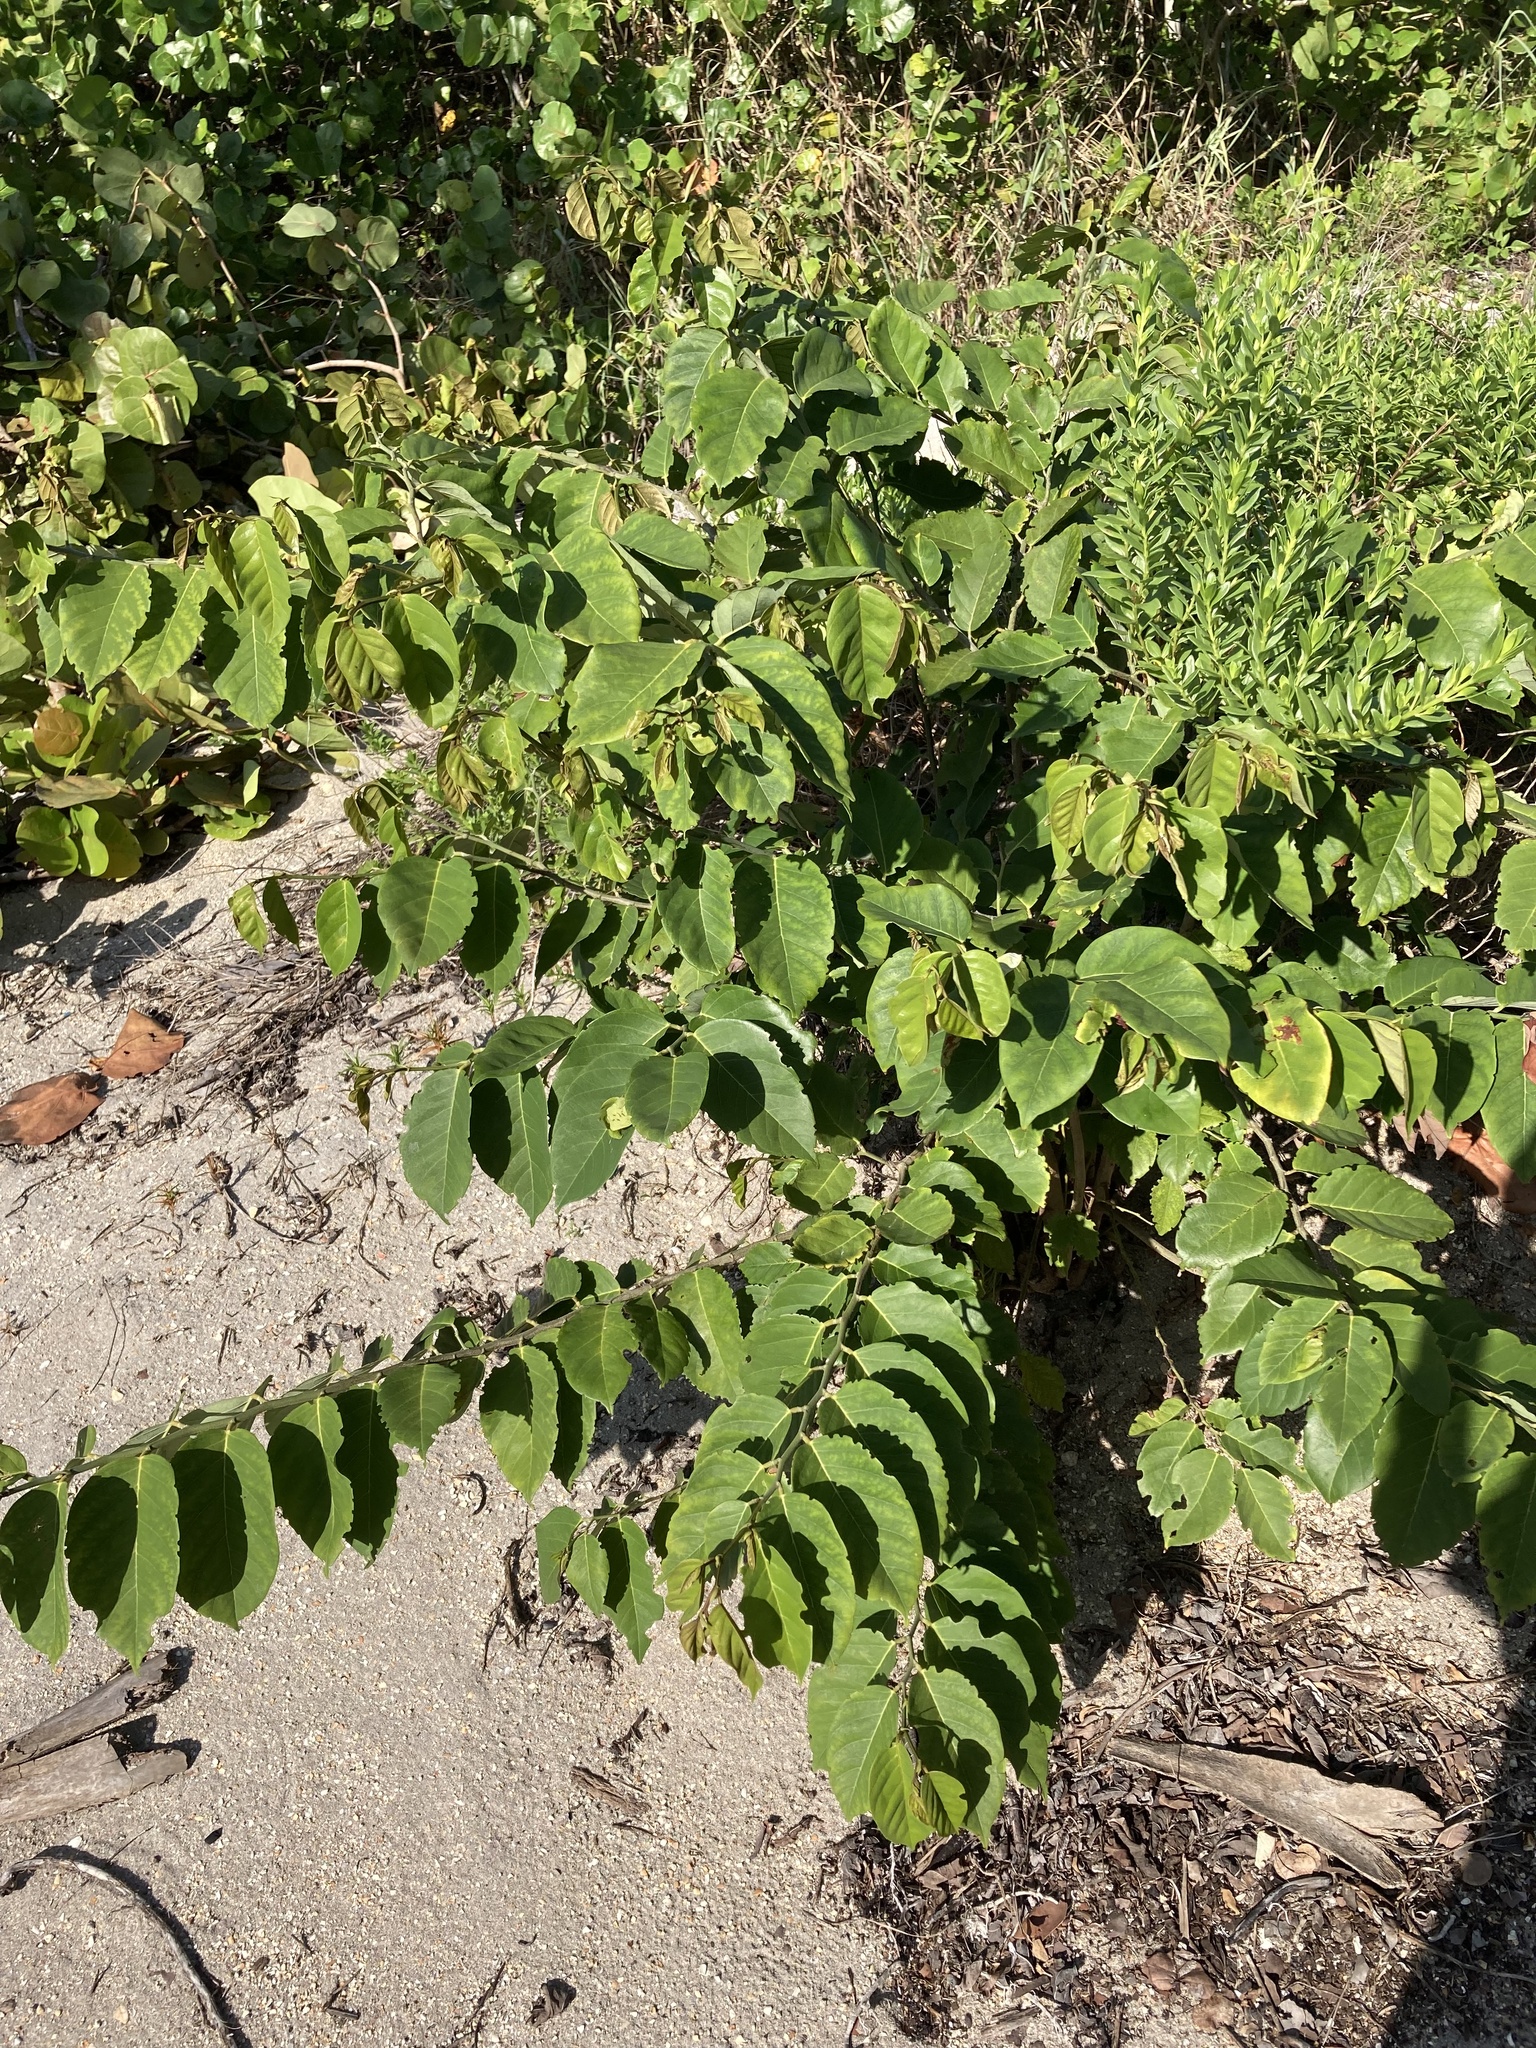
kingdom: Plantae
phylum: Tracheophyta
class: Magnoliopsida
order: Fabales
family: Fabaceae
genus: Dalbergia
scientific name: Dalbergia ecastaphyllum
